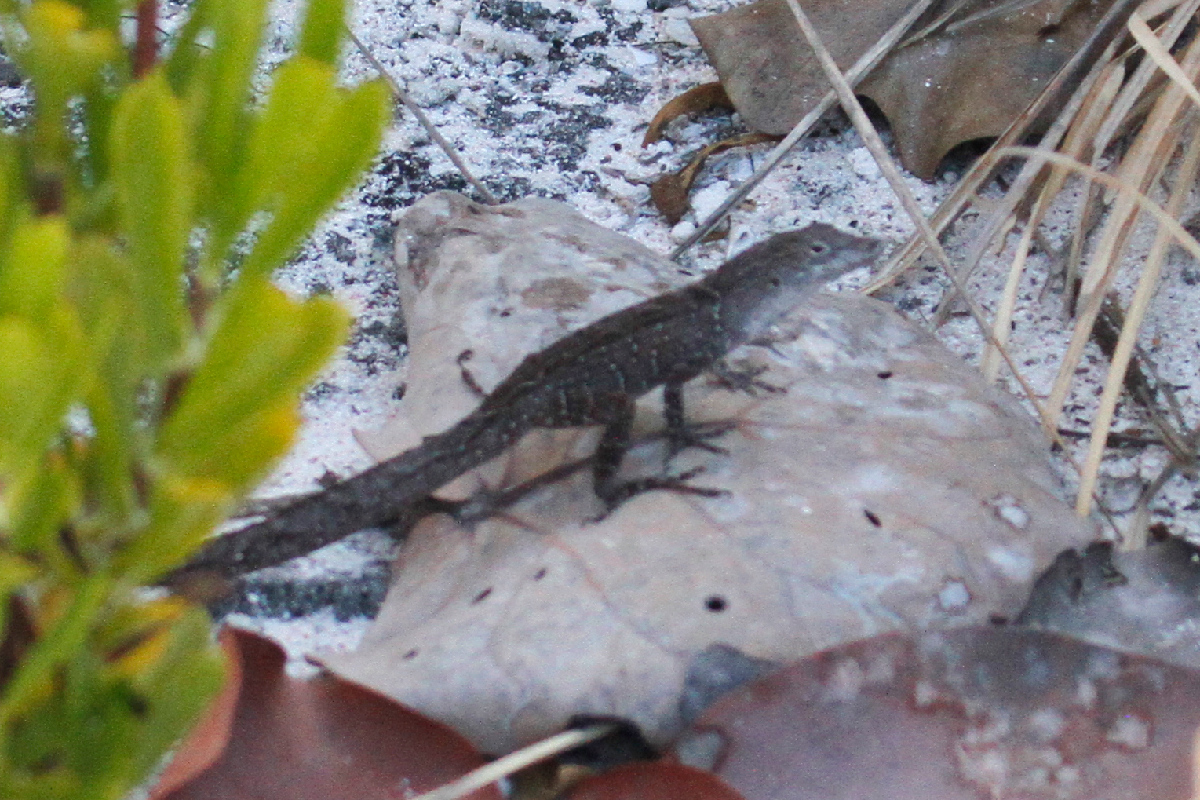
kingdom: Animalia
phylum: Chordata
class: Squamata
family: Dactyloidae
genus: Anolis
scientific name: Anolis sagrei
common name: Brown anole
